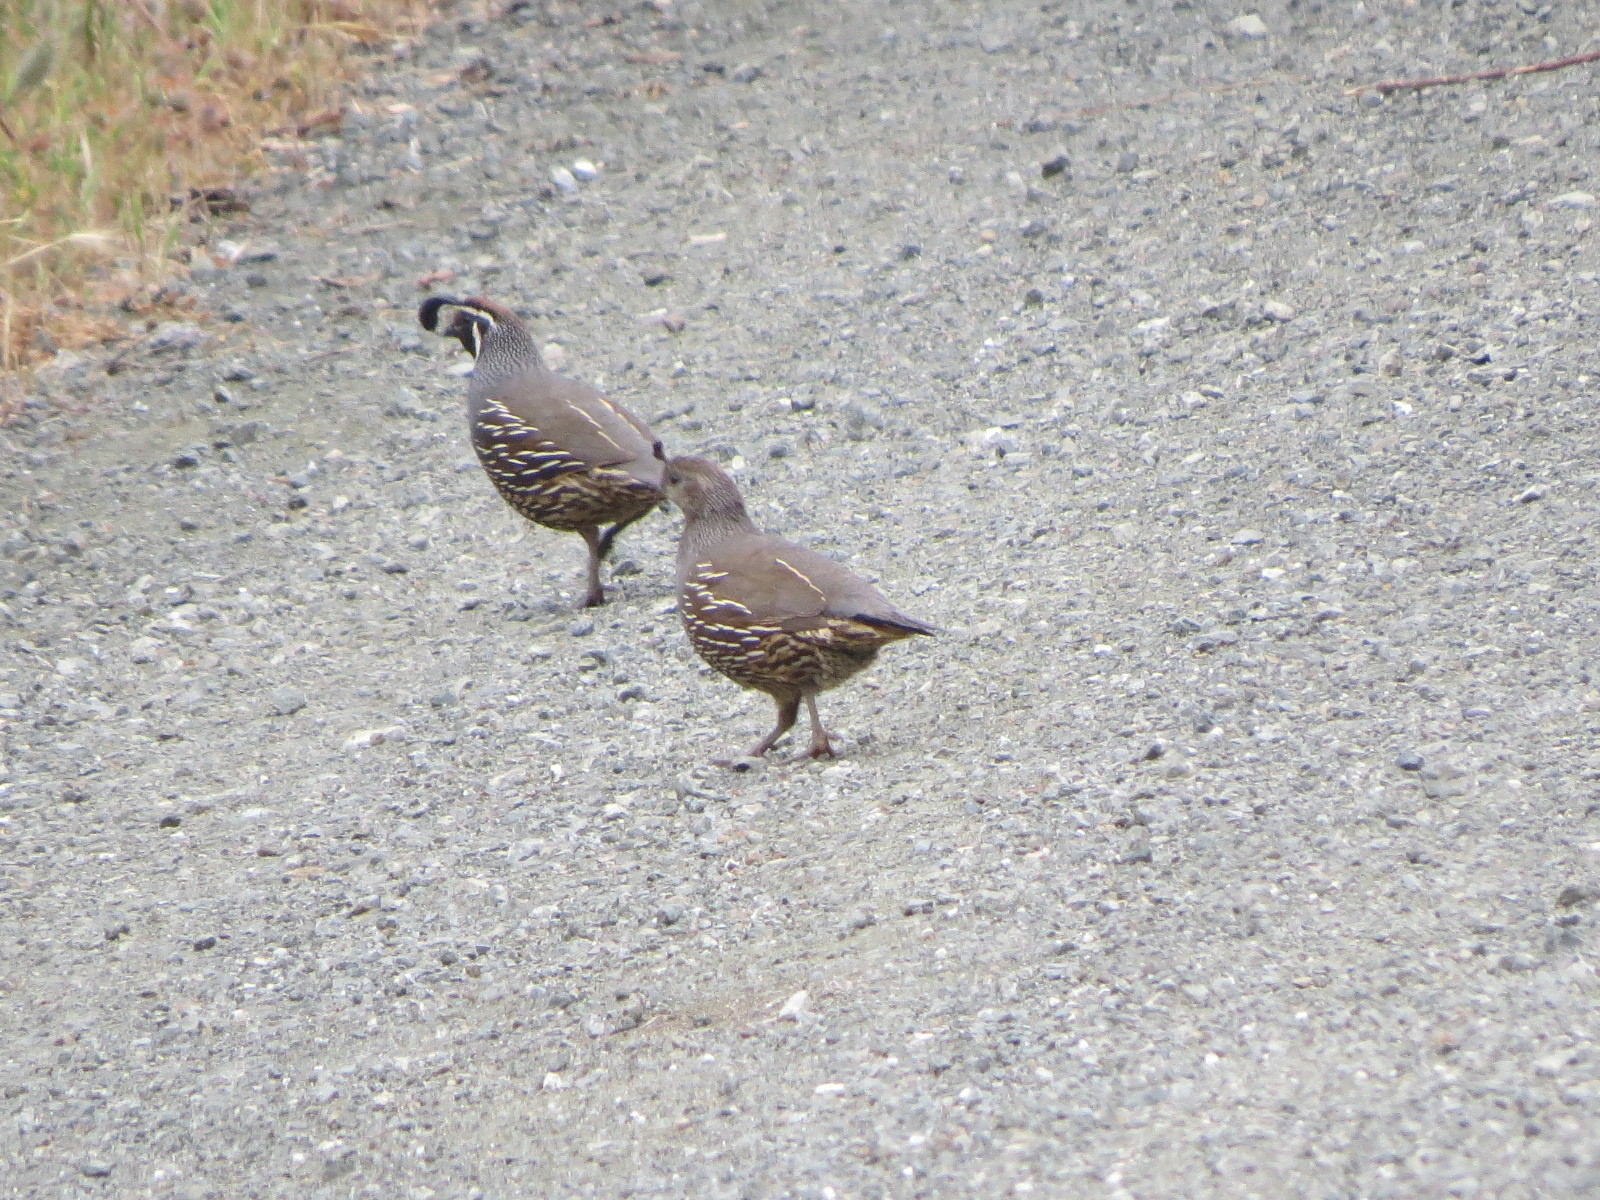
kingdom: Animalia
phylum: Chordata
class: Aves
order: Galliformes
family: Odontophoridae
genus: Callipepla
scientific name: Callipepla californica
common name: California quail
